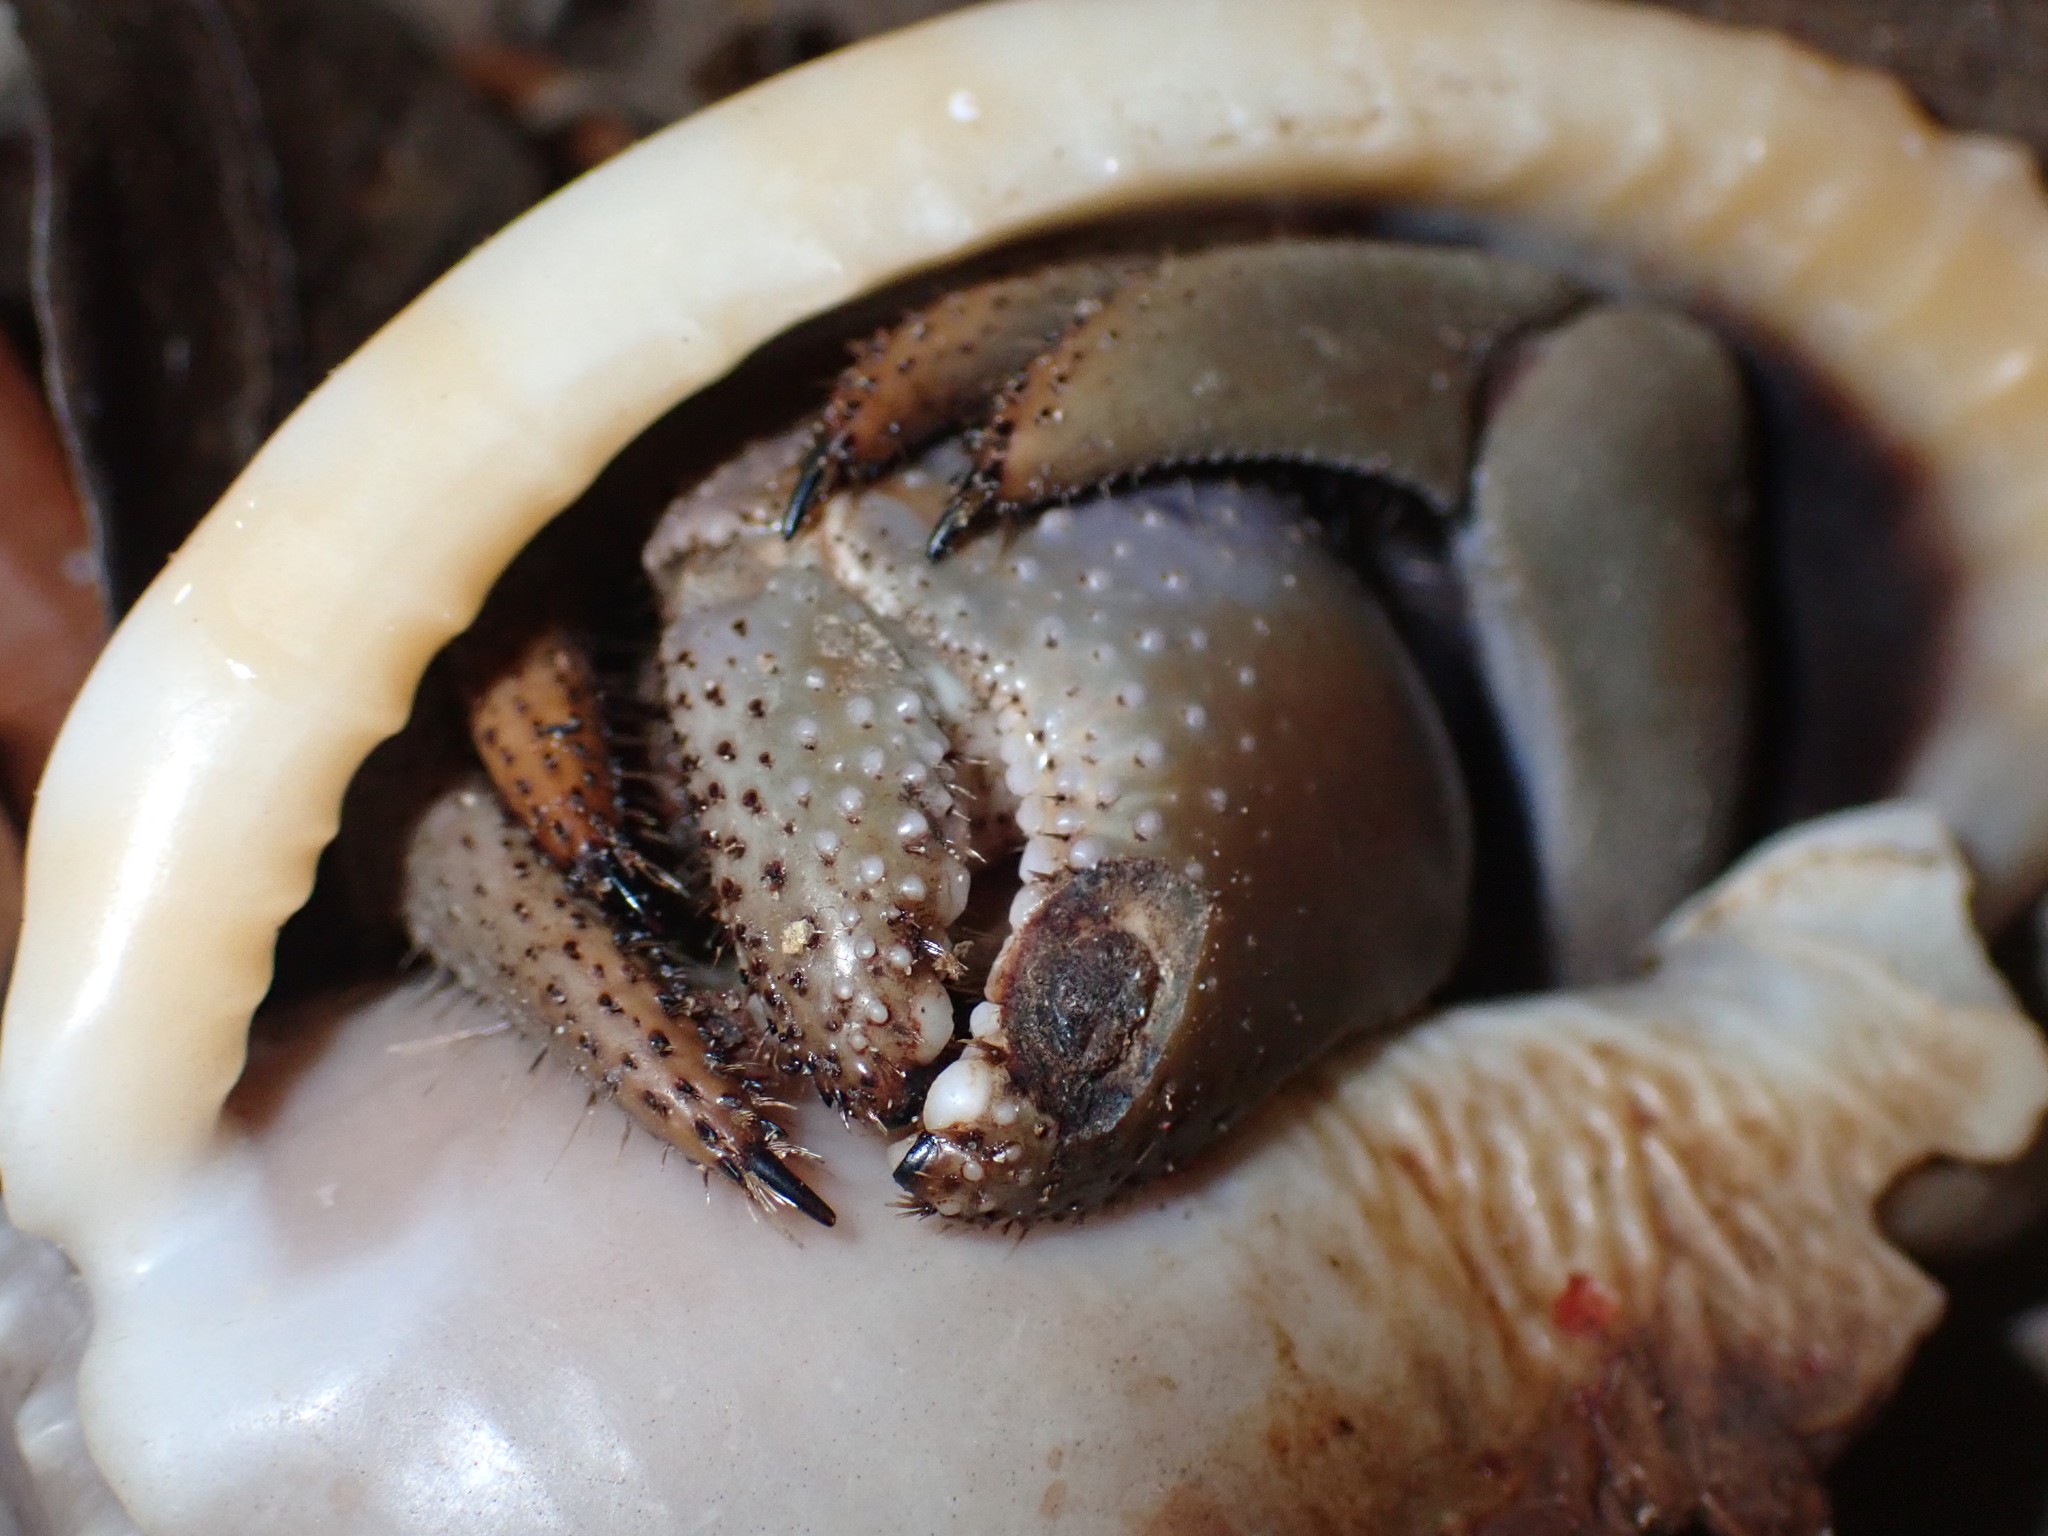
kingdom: Animalia
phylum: Arthropoda
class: Malacostraca
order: Decapoda
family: Coenobitidae
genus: Coenobita
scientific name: Coenobita violascens
